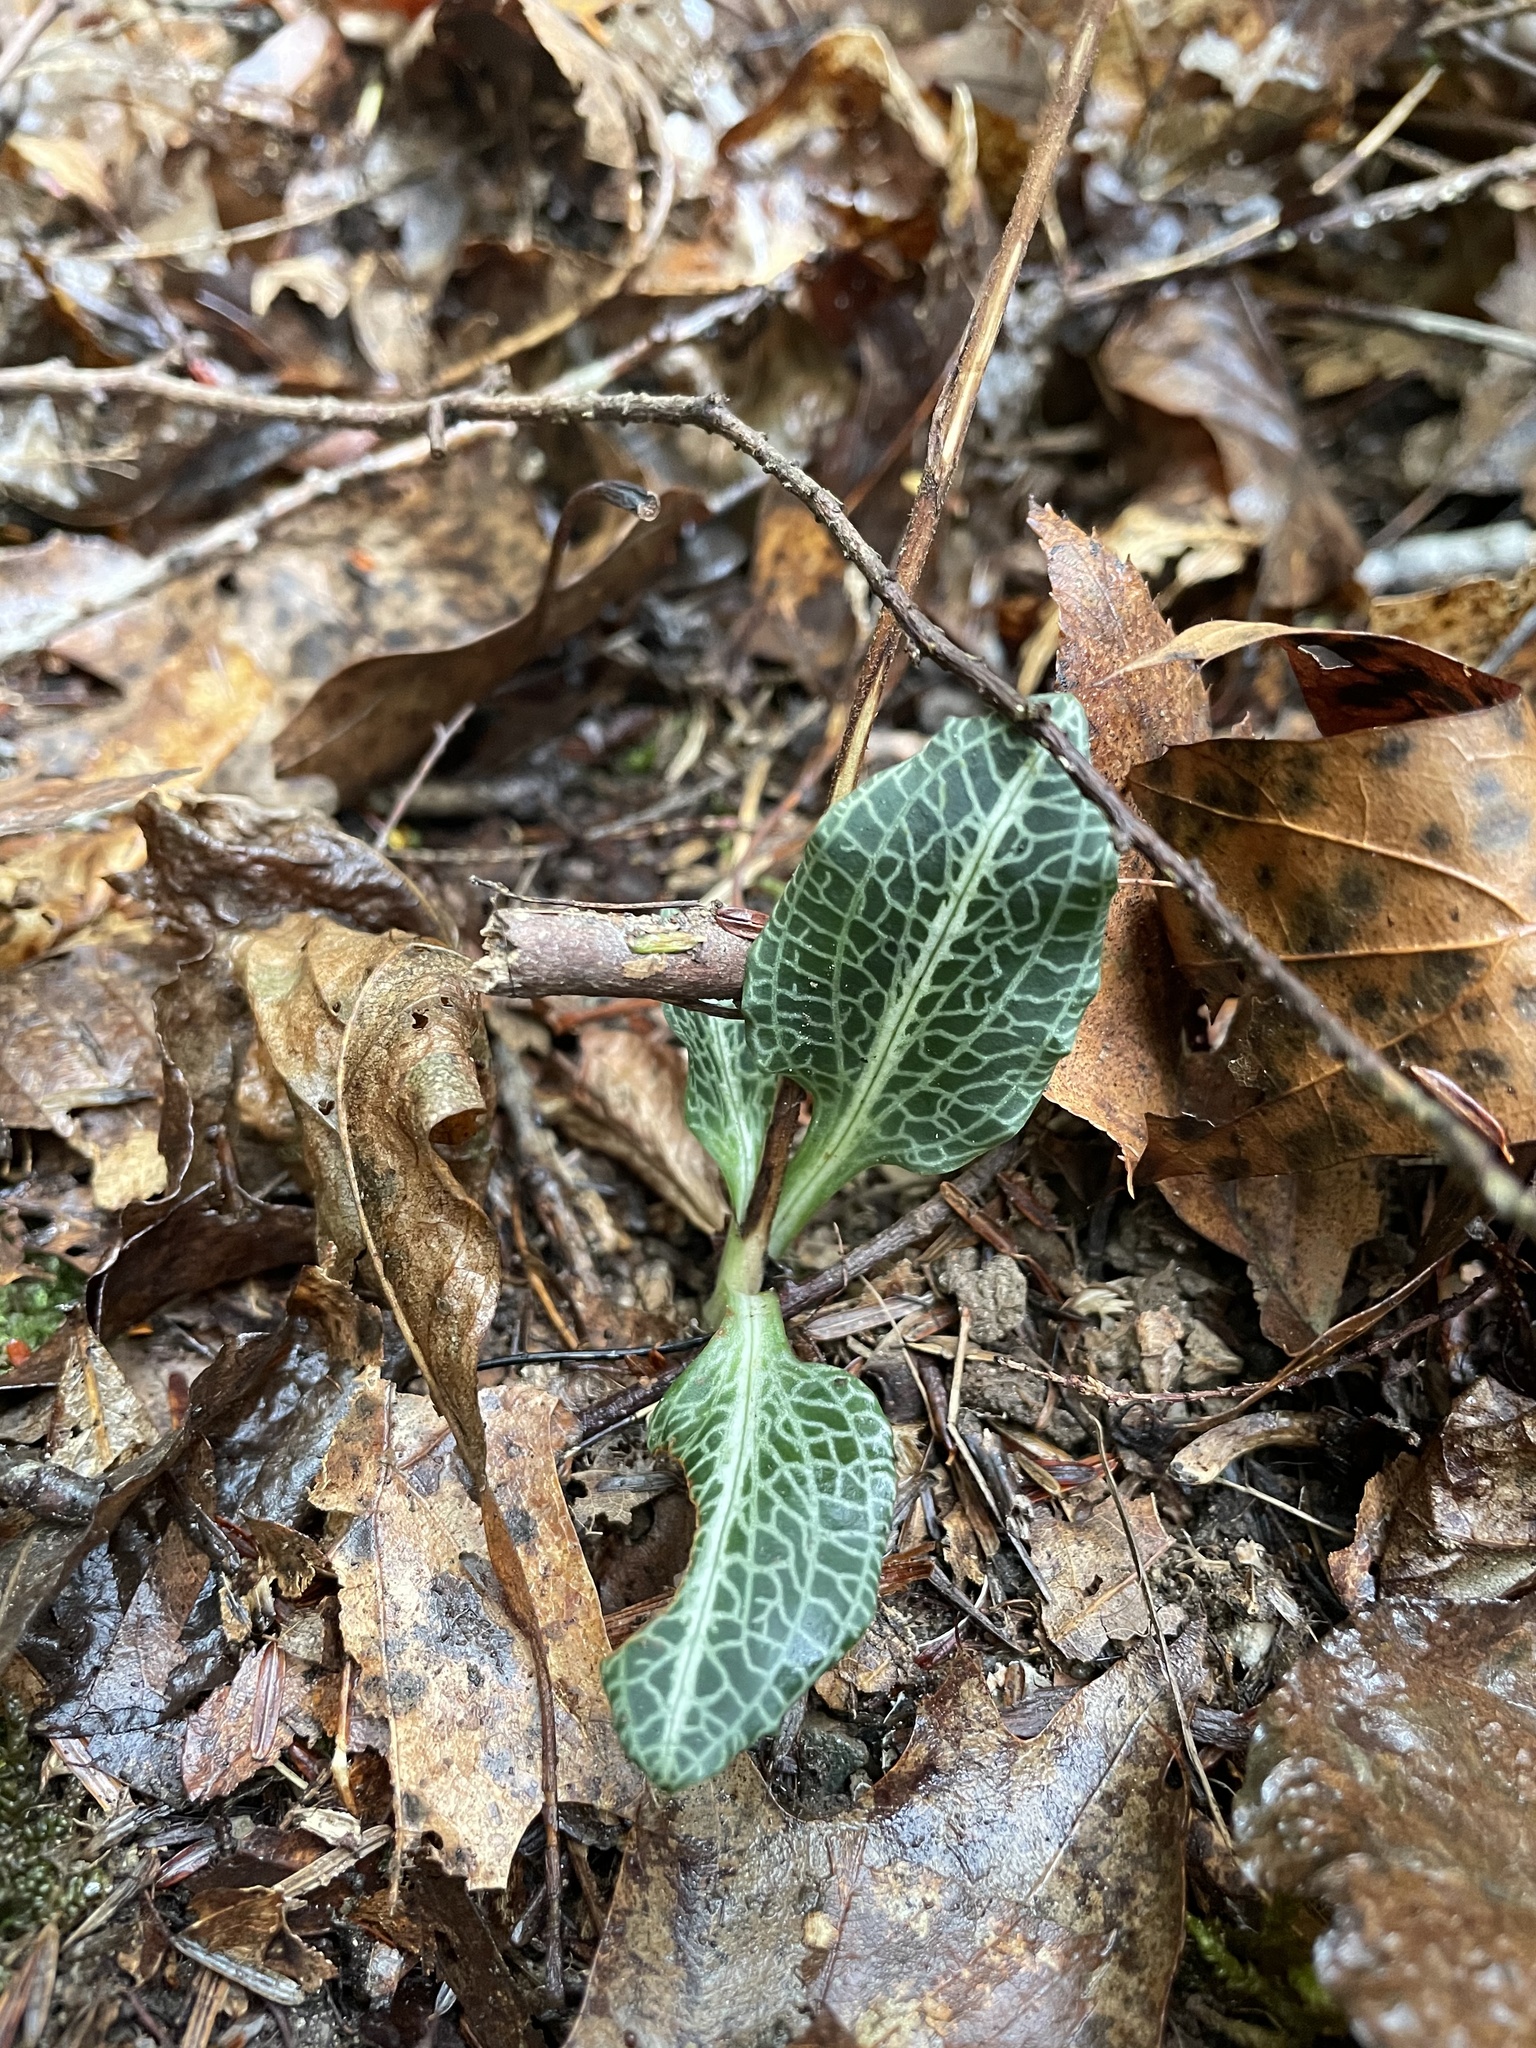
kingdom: Plantae
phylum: Tracheophyta
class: Liliopsida
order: Asparagales
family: Orchidaceae
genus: Goodyera
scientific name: Goodyera pubescens
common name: Downy rattlesnake-plantain
